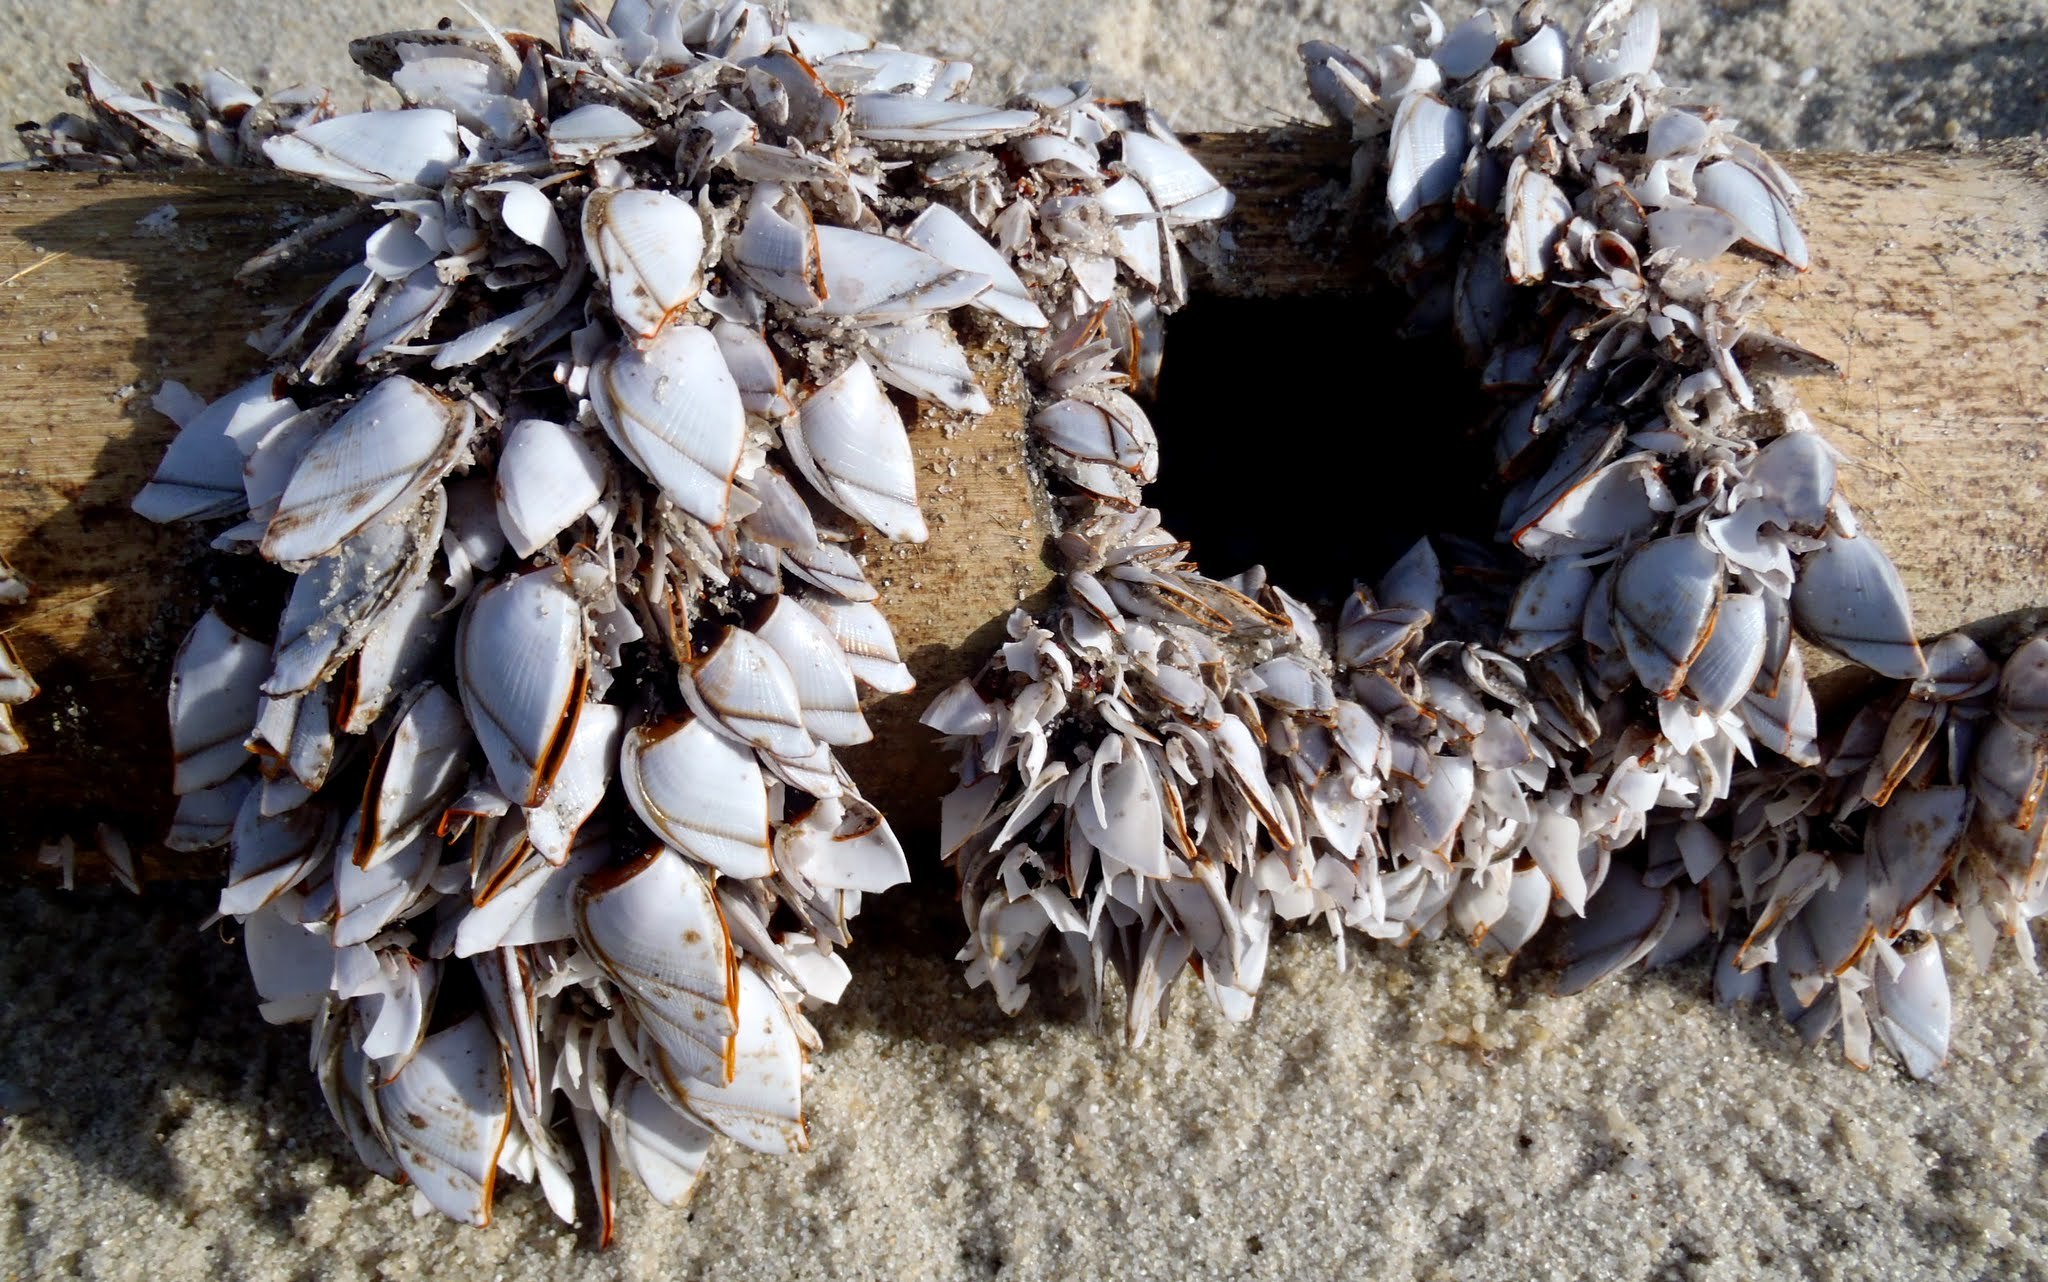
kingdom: Animalia
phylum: Arthropoda
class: Maxillopoda
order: Pedunculata
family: Lepadidae
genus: Lepas
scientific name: Lepas anserifera
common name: Goose barnacle
